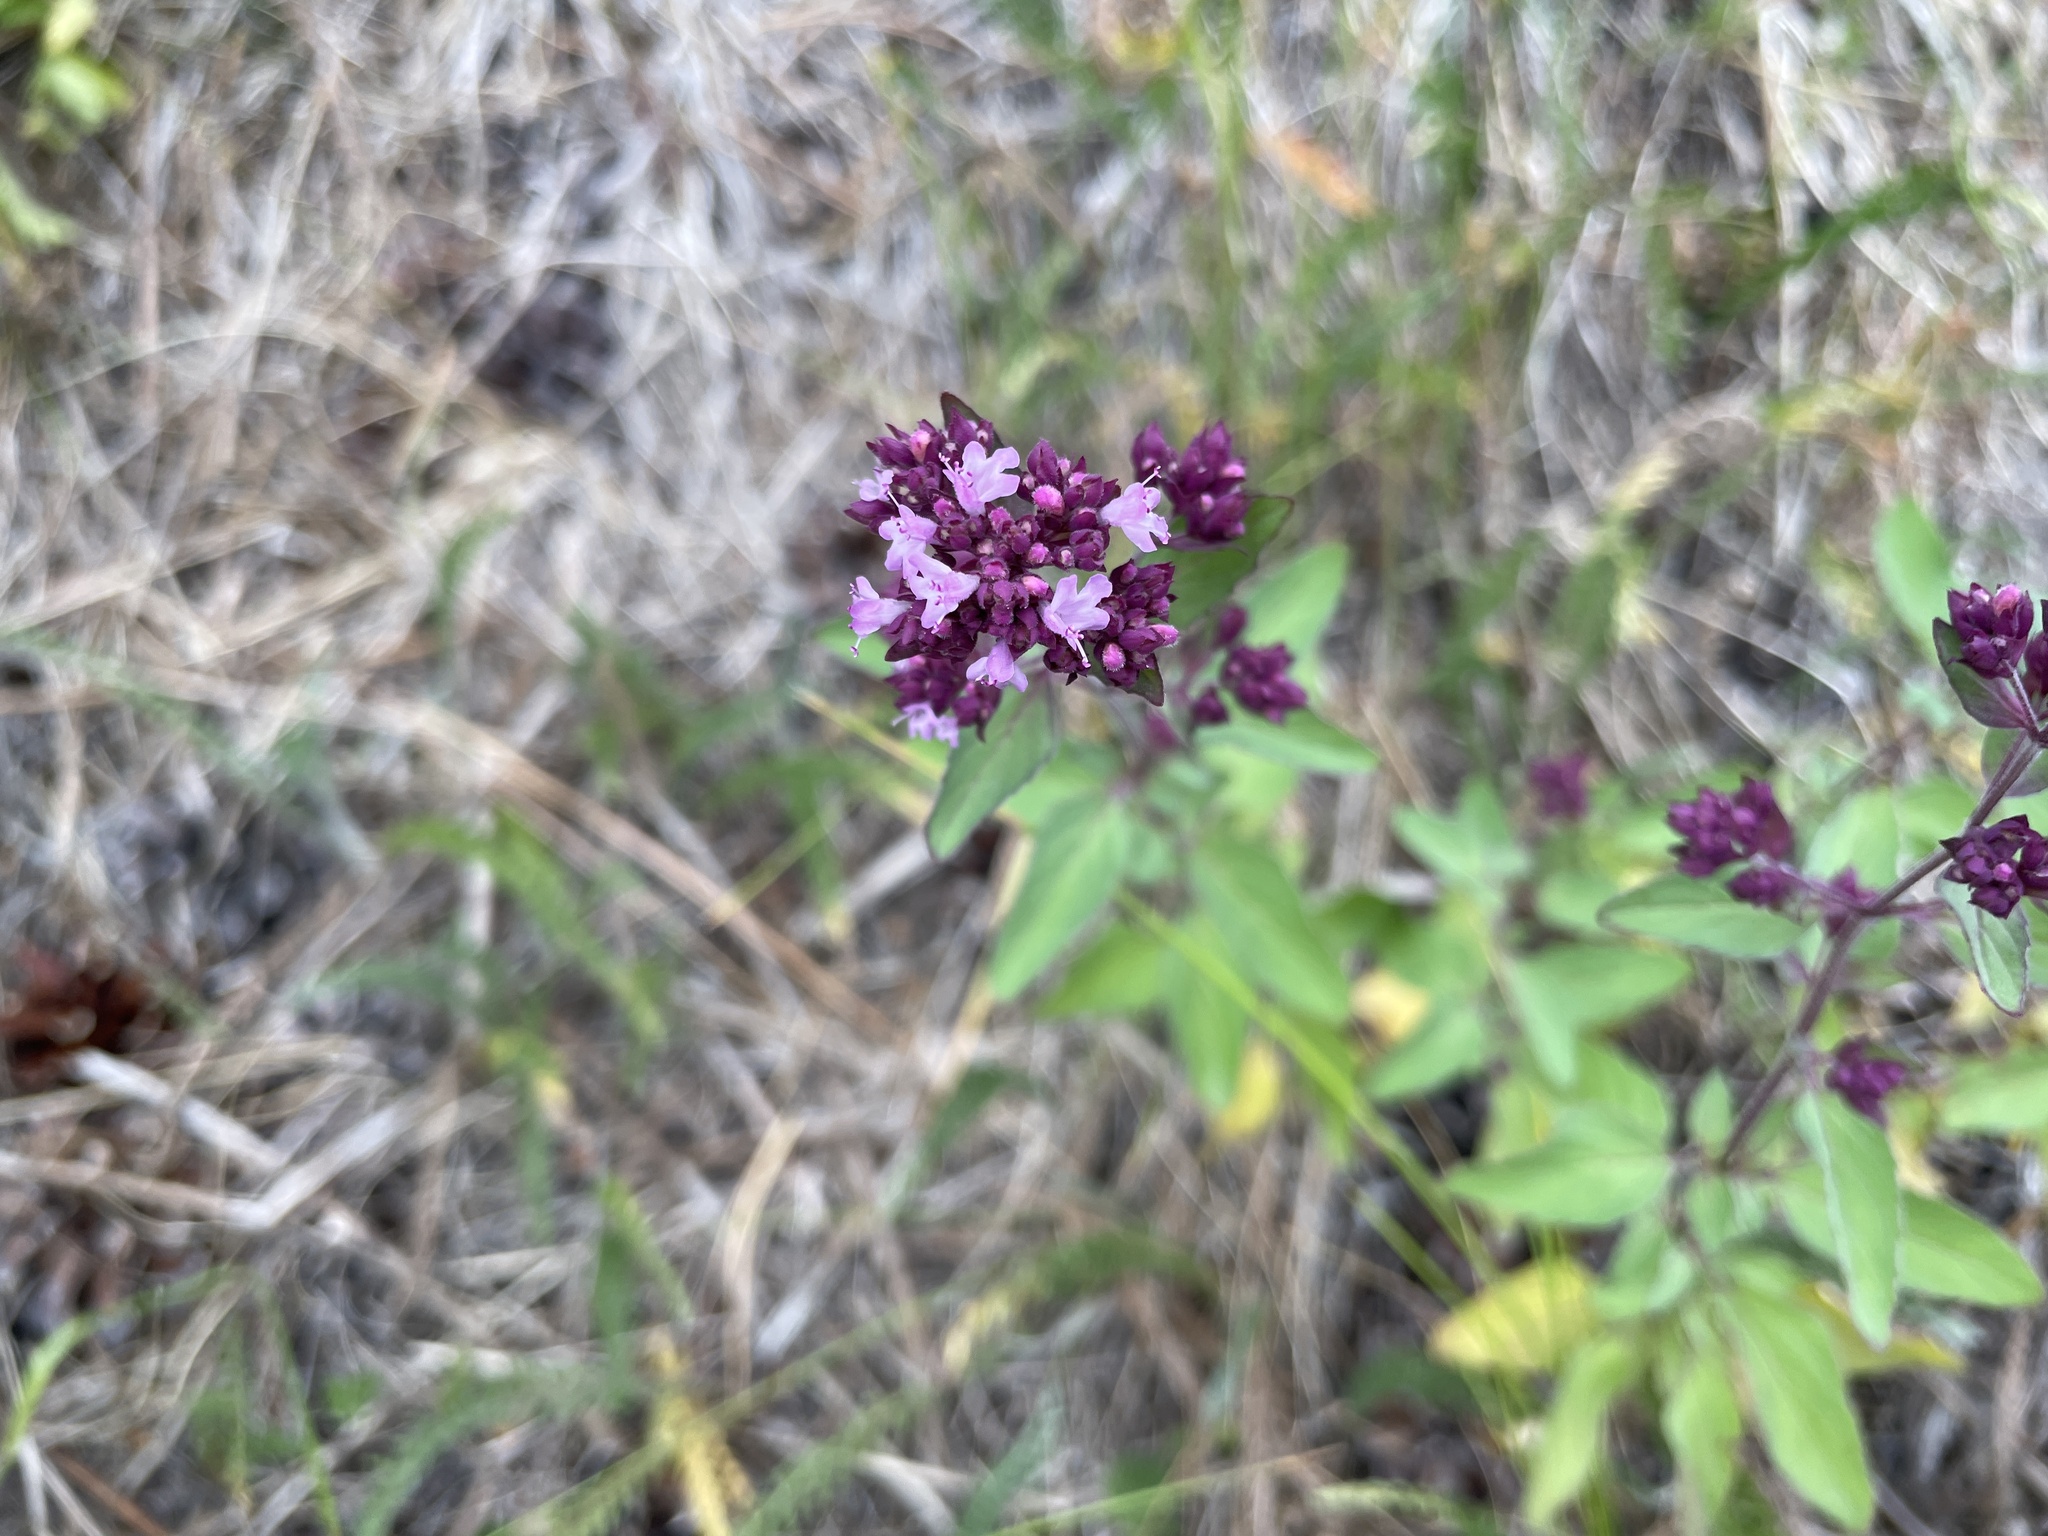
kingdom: Plantae
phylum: Tracheophyta
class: Magnoliopsida
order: Lamiales
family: Lamiaceae
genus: Origanum
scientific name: Origanum vulgare
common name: Wild marjoram
